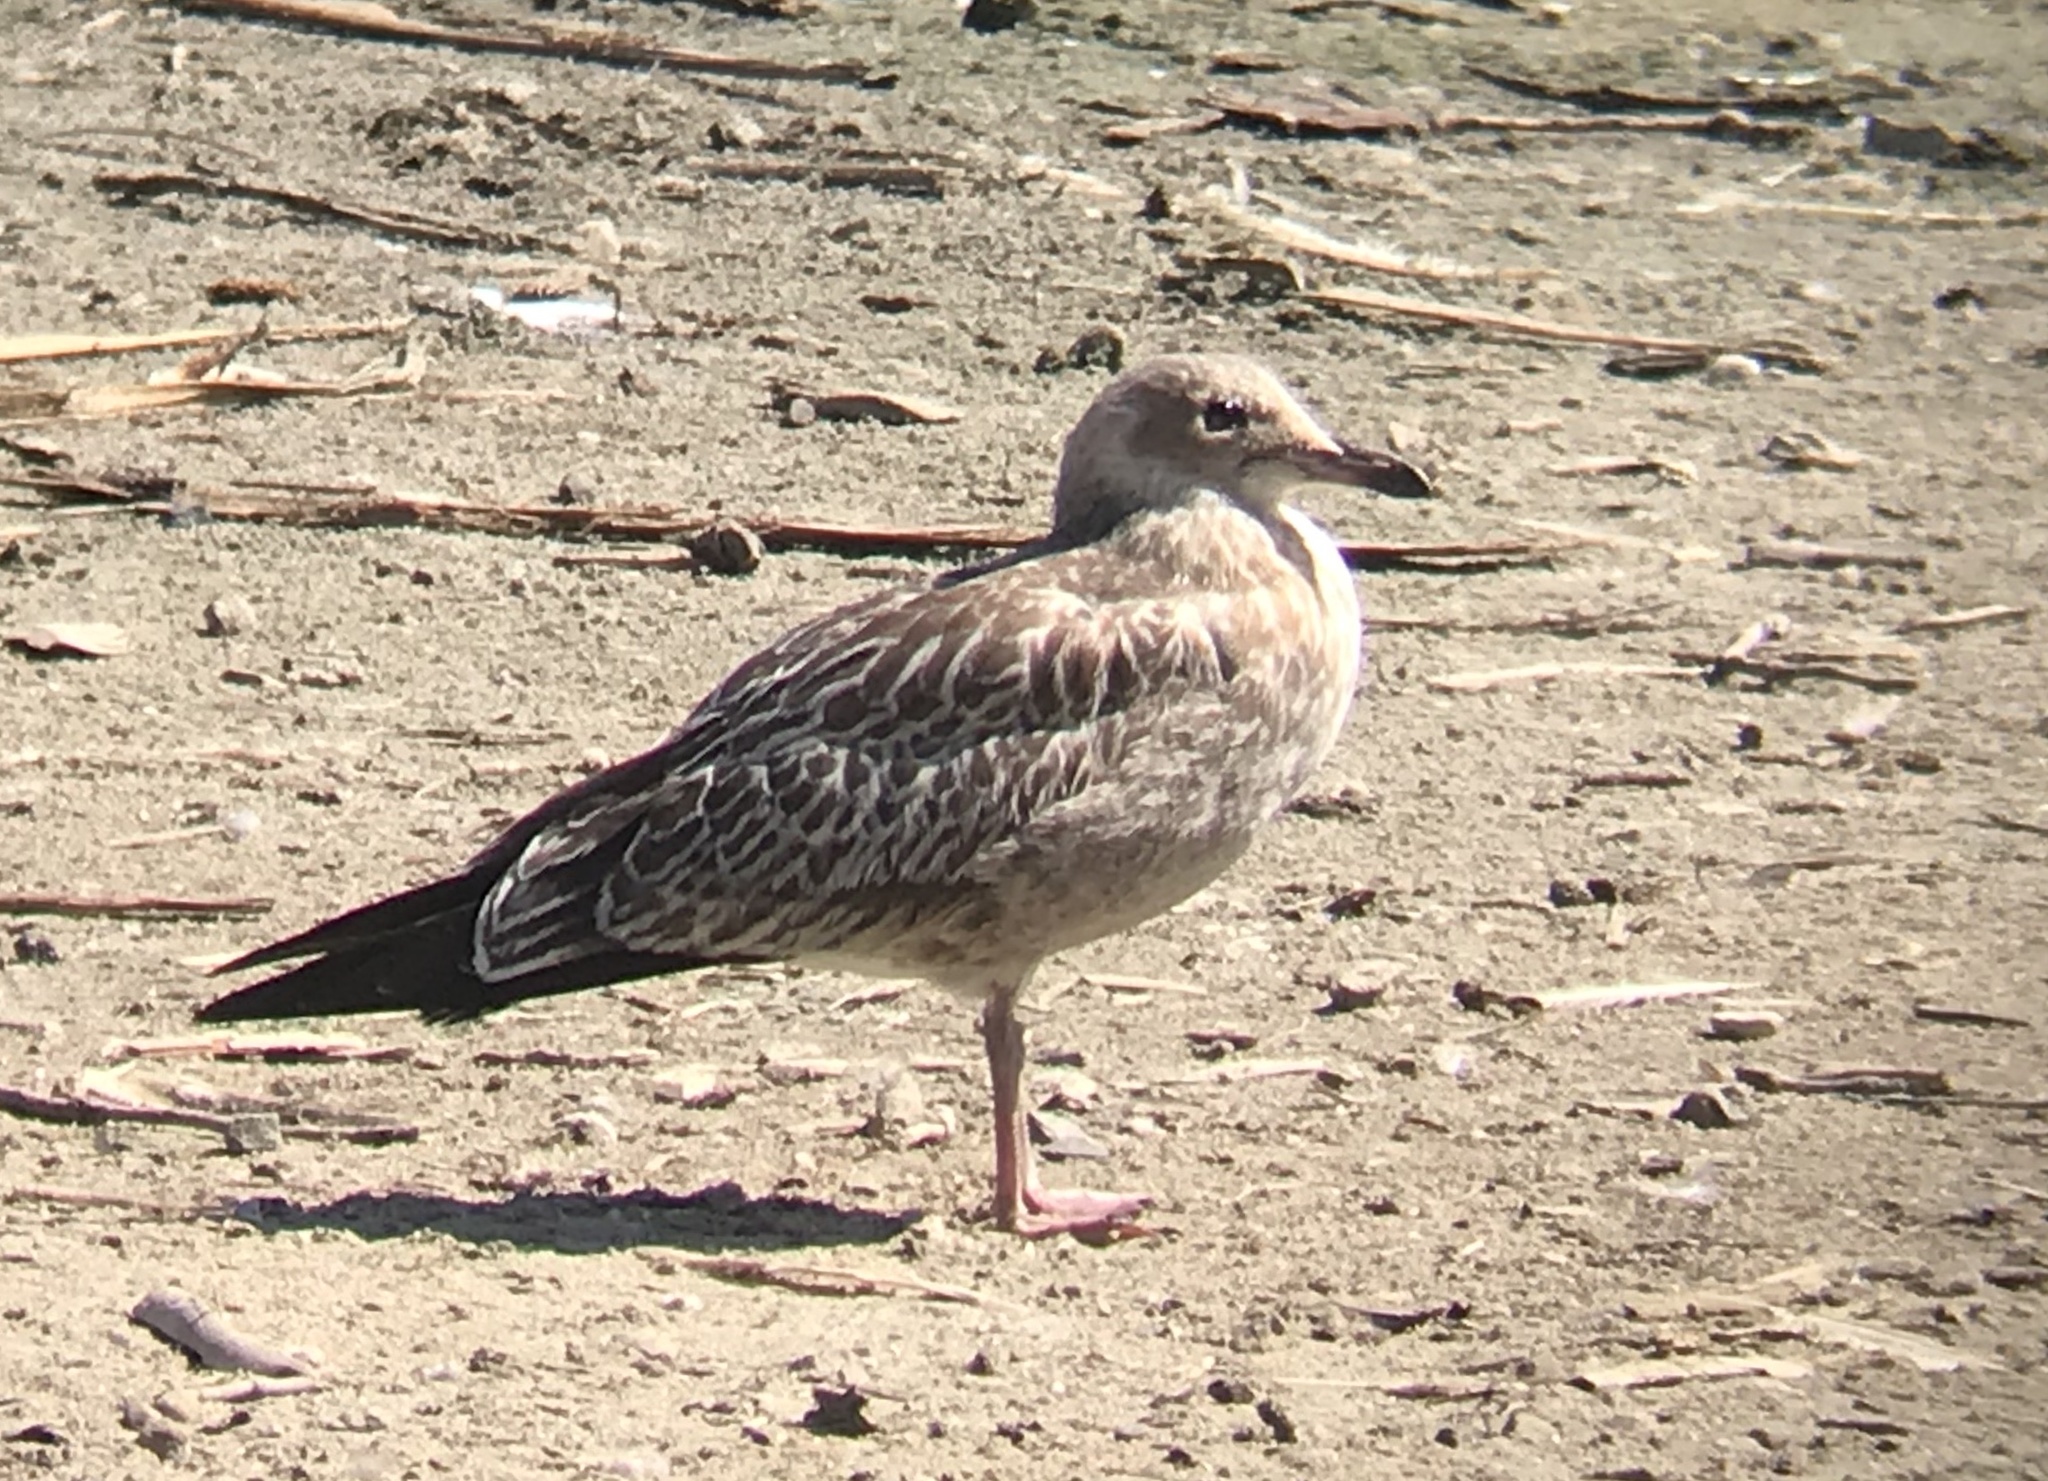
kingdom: Animalia
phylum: Chordata
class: Aves
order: Charadriiformes
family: Laridae
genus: Larus
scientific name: Larus californicus
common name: California gull
